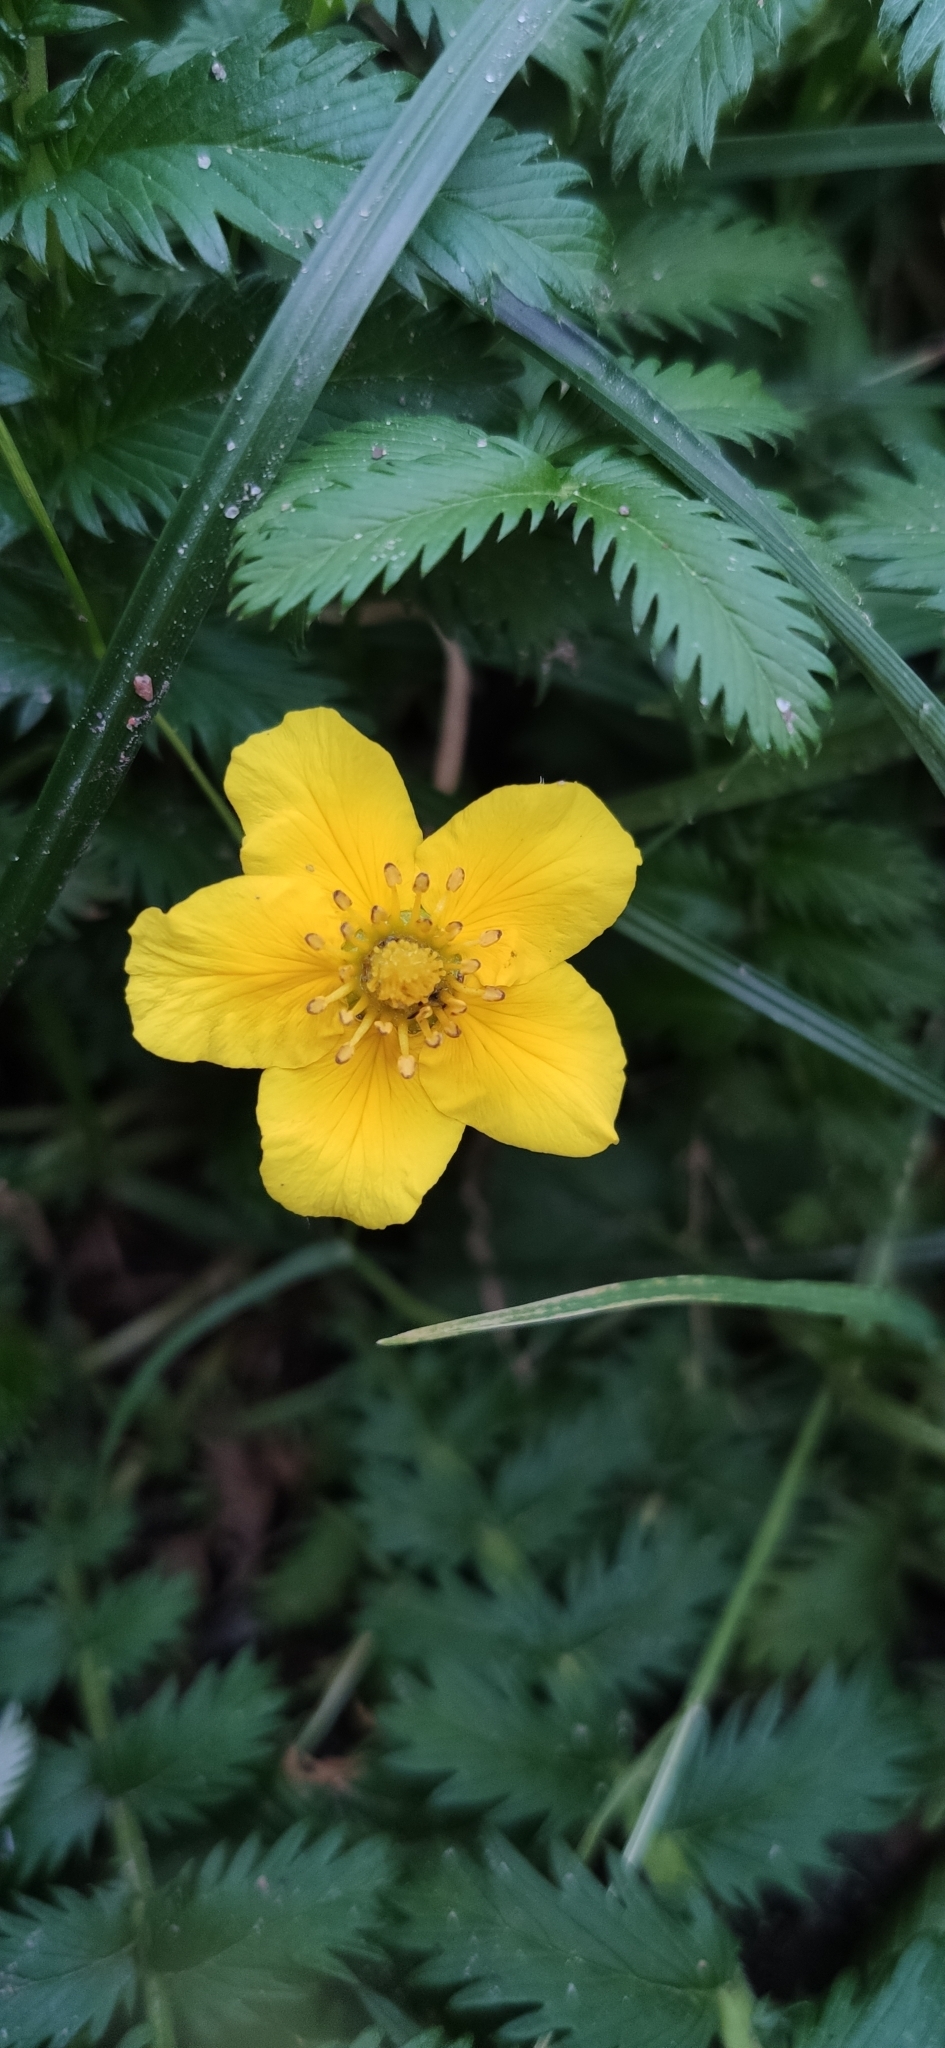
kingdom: Plantae
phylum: Tracheophyta
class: Magnoliopsida
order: Rosales
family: Rosaceae
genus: Argentina
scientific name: Argentina anserina
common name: Common silverweed
